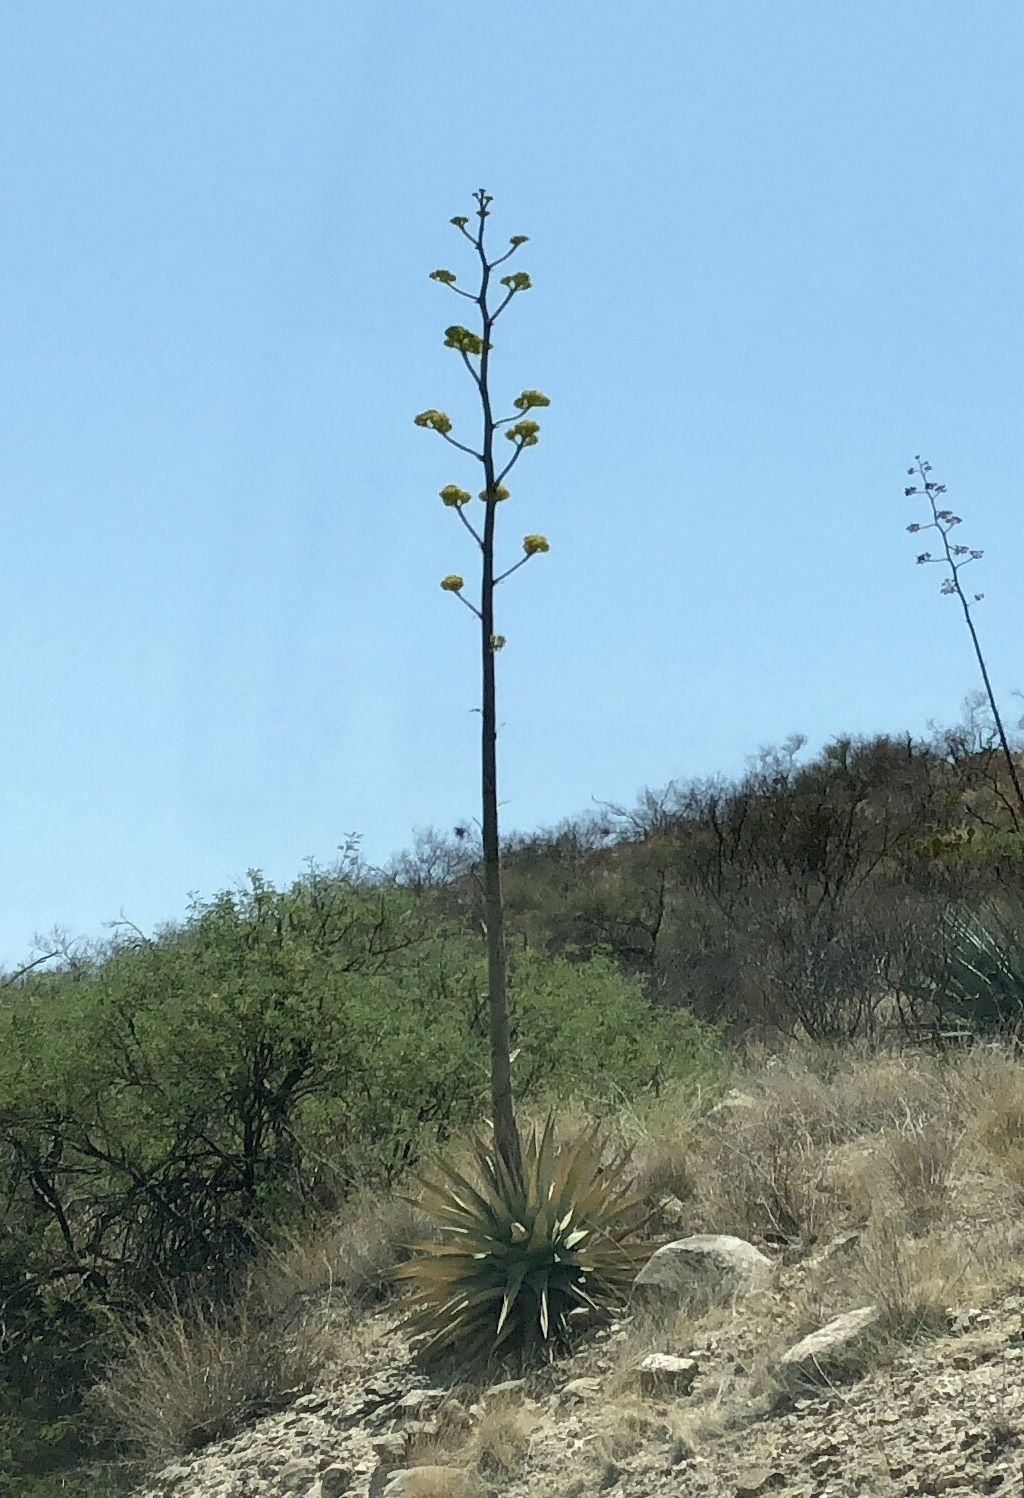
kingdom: Plantae
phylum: Tracheophyta
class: Liliopsida
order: Asparagales
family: Asparagaceae
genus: Agave
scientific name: Agave chrysantha
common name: Golden-flowered agave
